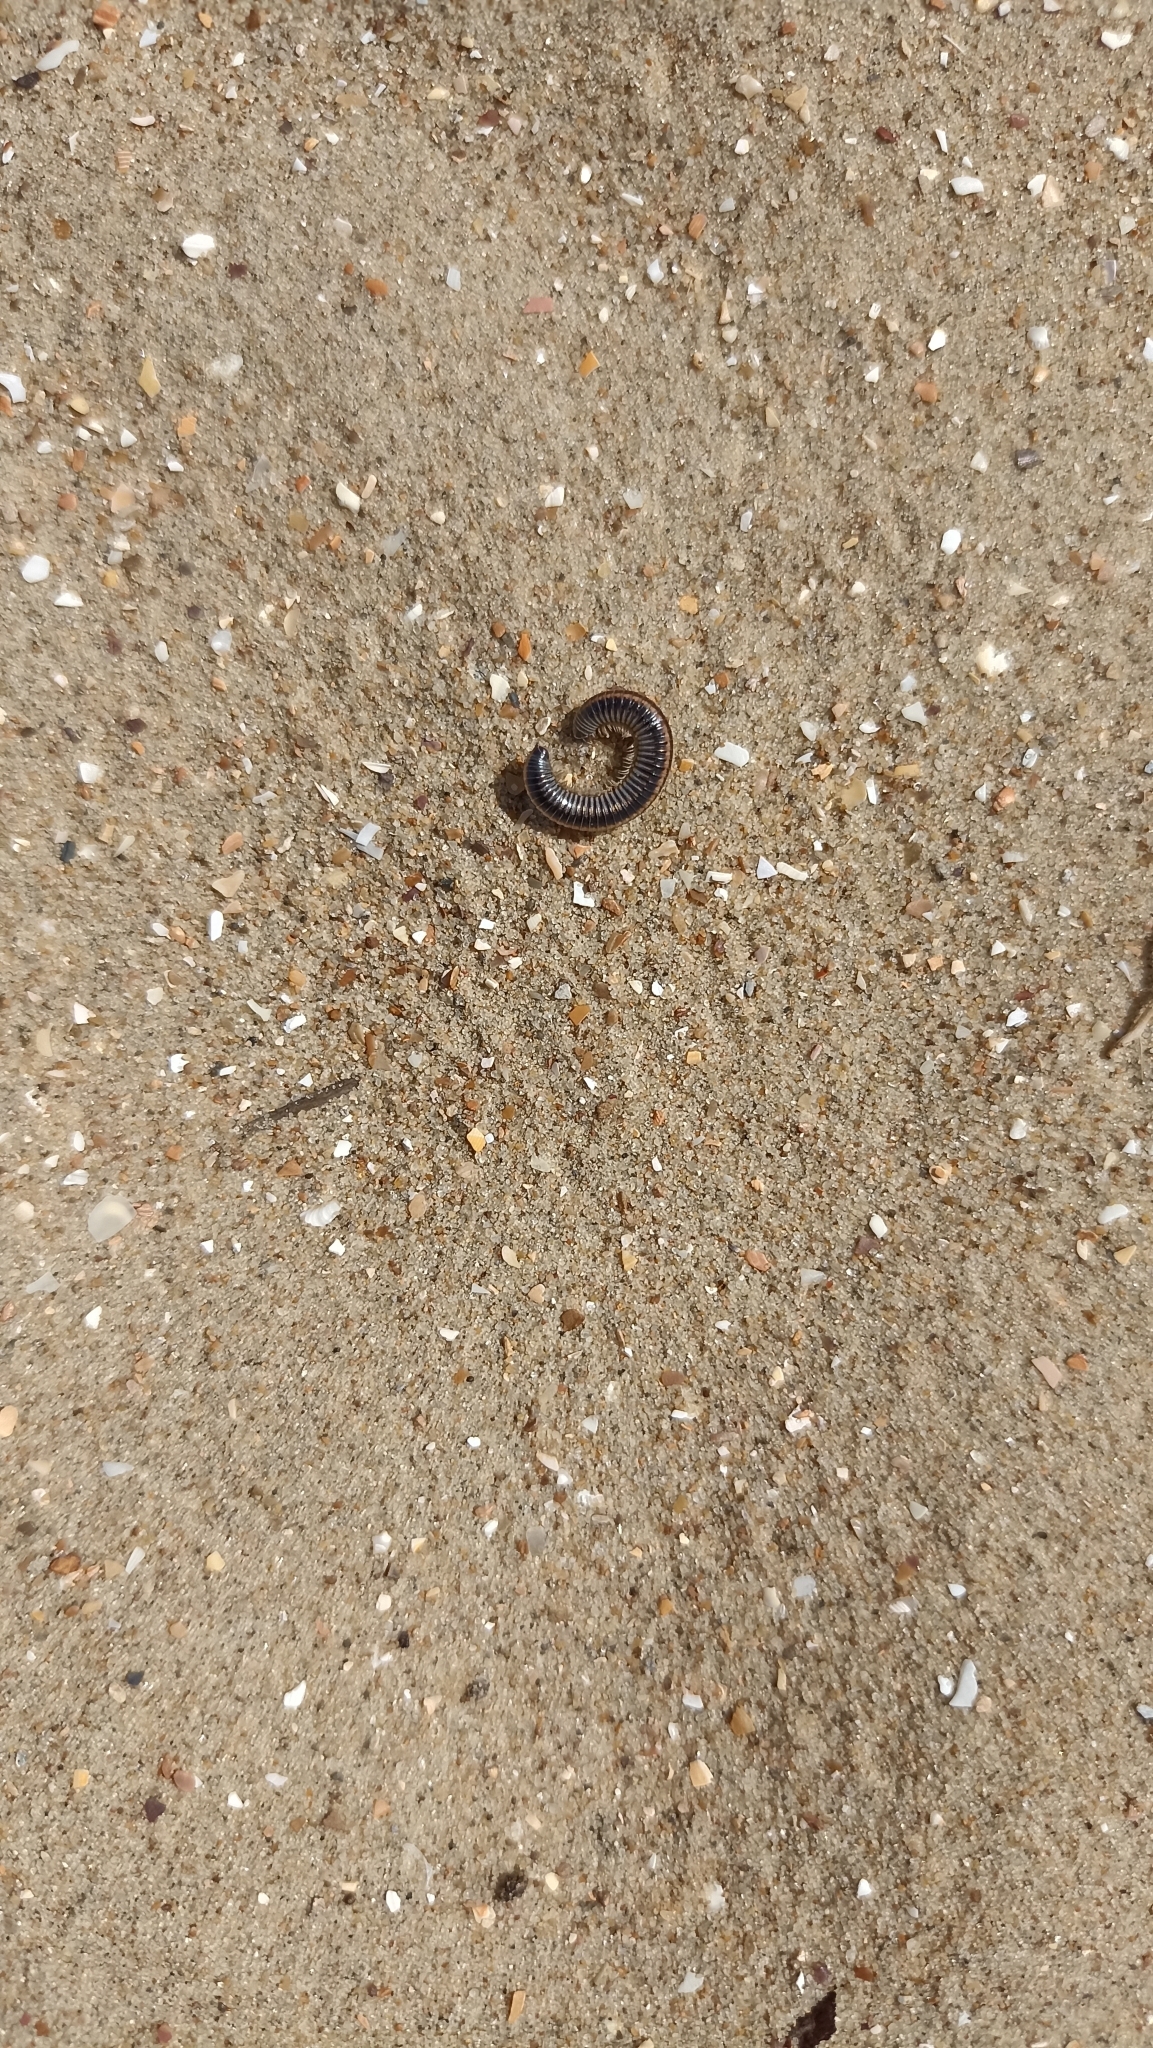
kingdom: Animalia
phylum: Arthropoda
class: Diplopoda
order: Julida
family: Julidae
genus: Ommatoiulus
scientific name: Ommatoiulus sabulosus
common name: Striped millipede
